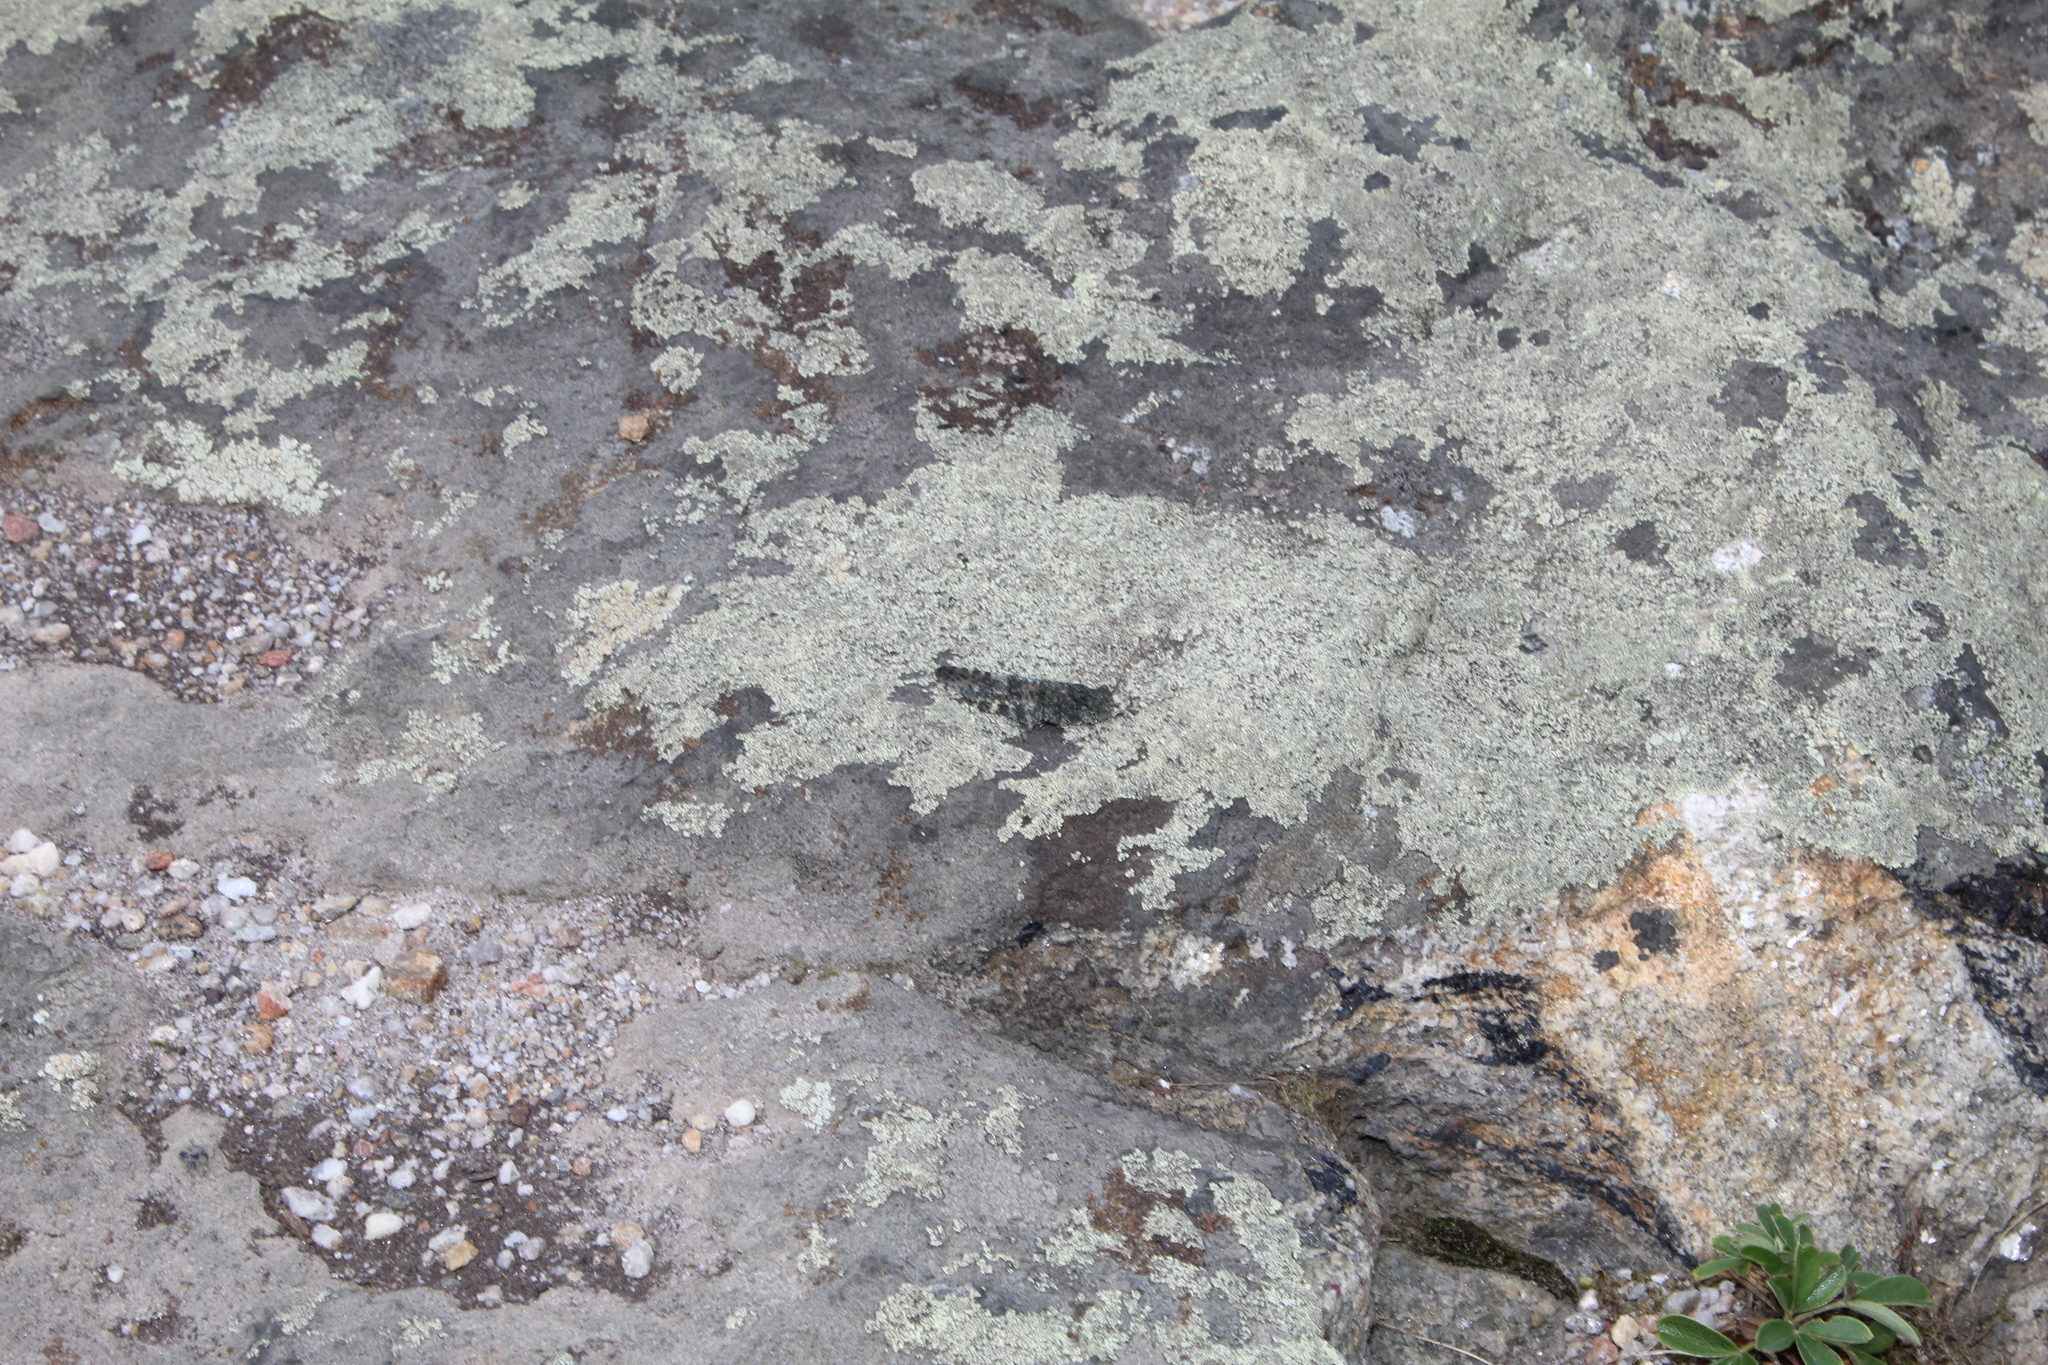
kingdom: Animalia
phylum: Arthropoda
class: Insecta
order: Orthoptera
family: Acrididae
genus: Trimerotropis
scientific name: Trimerotropis verruculata
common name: Crackling forest grasshopper
